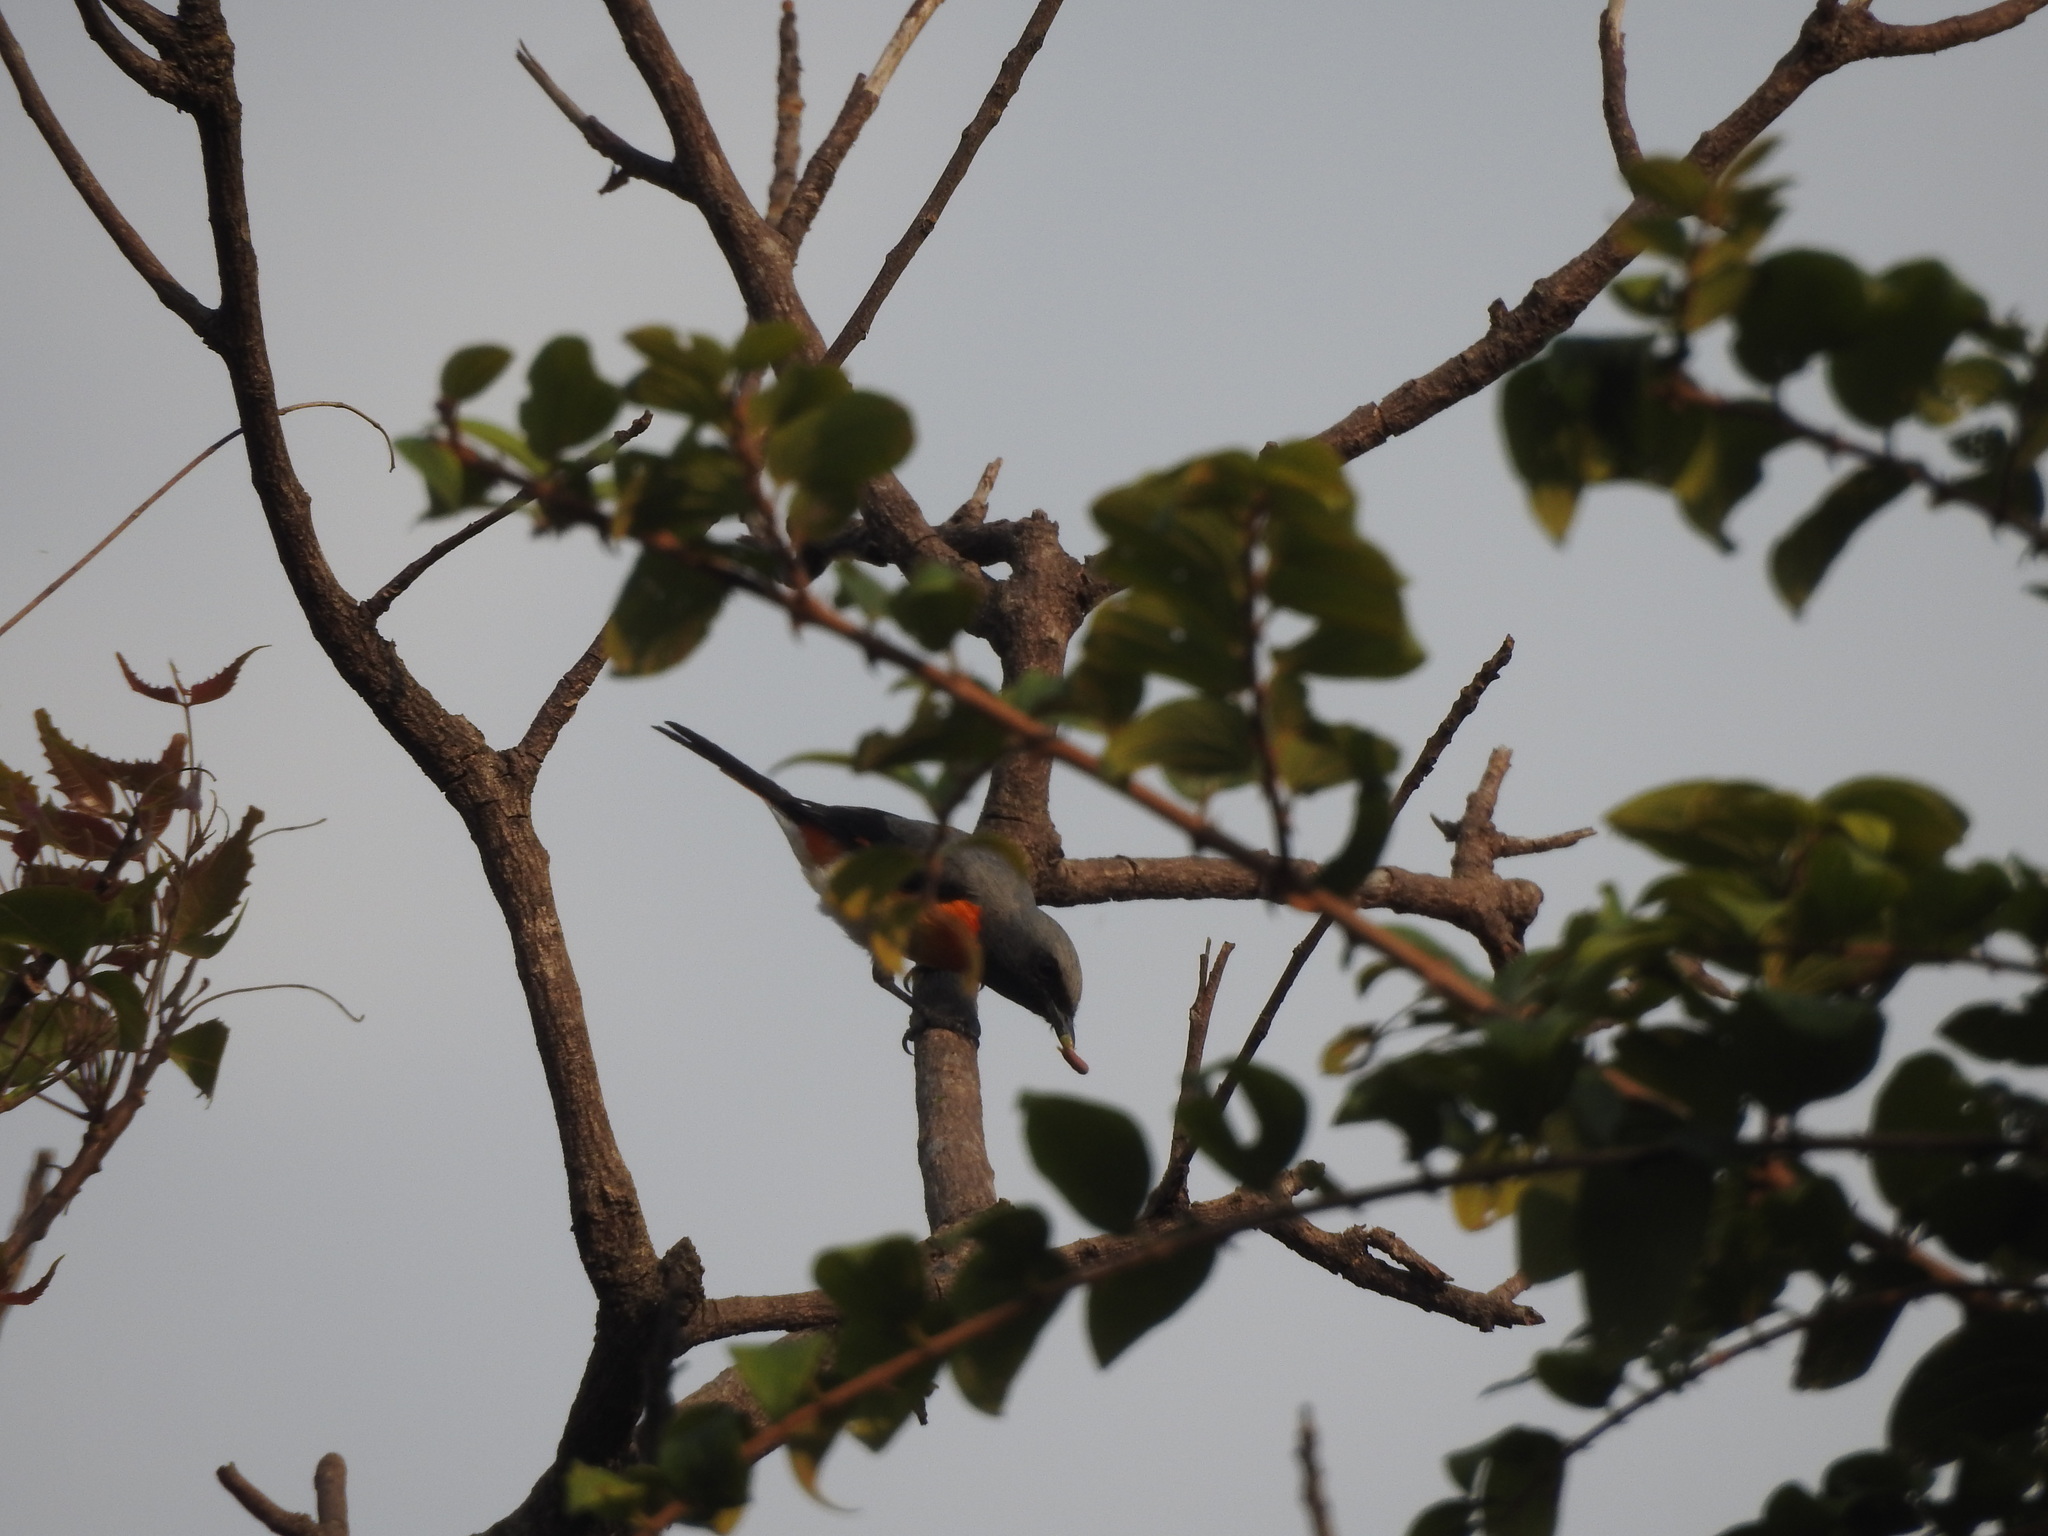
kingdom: Animalia
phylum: Chordata
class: Aves
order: Passeriformes
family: Campephagidae
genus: Pericrocotus
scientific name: Pericrocotus cinnamomeus
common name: Small minivet
